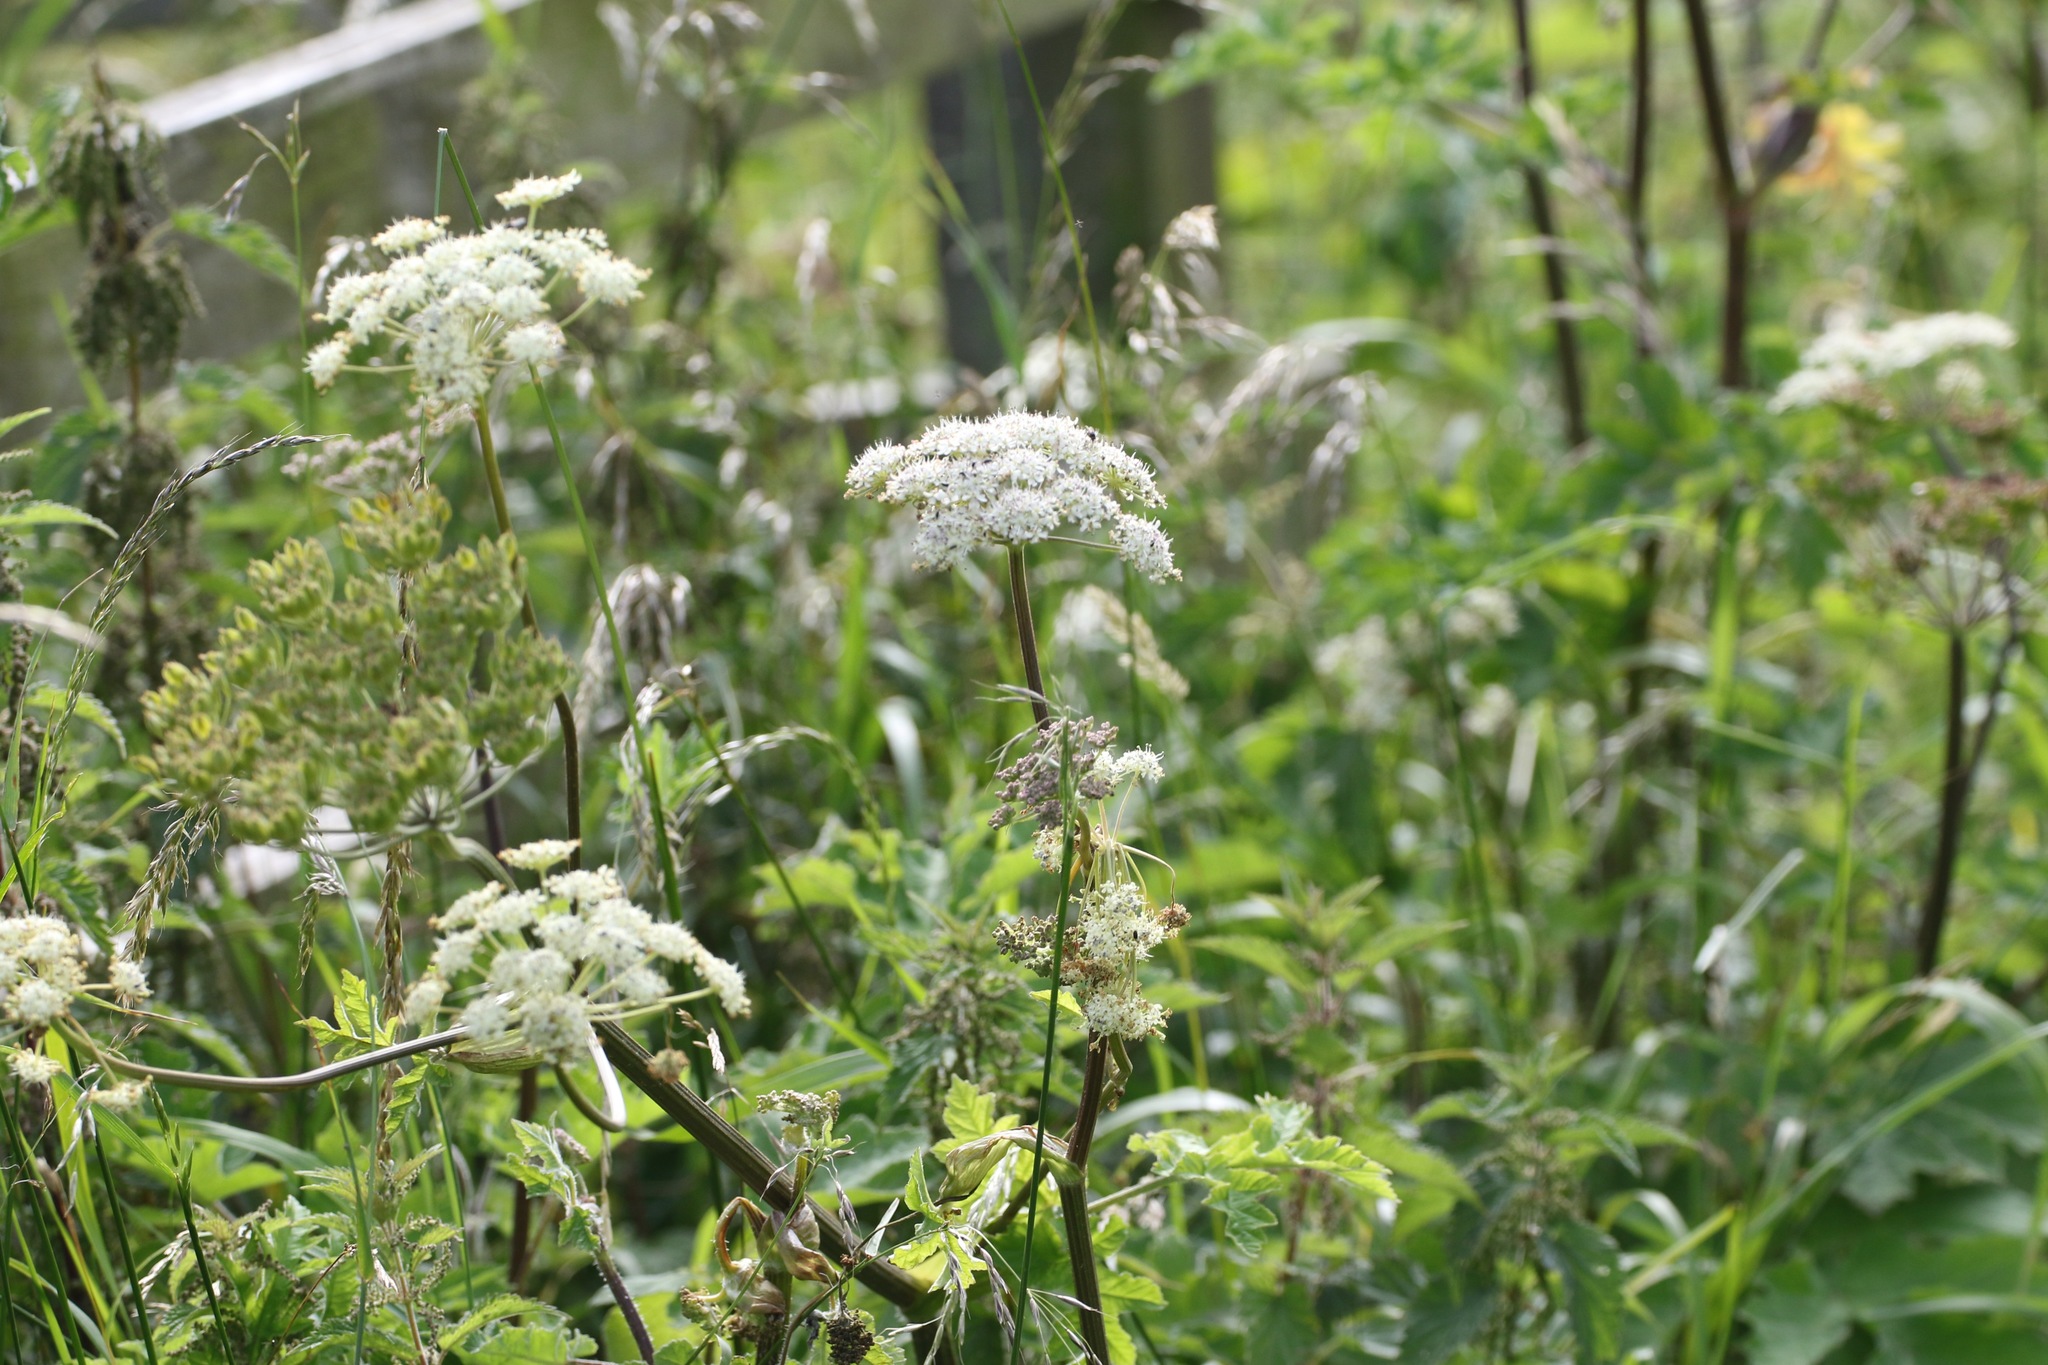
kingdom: Plantae
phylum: Tracheophyta
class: Magnoliopsida
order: Apiales
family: Apiaceae
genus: Heracleum
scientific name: Heracleum sphondylium
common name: Hogweed
